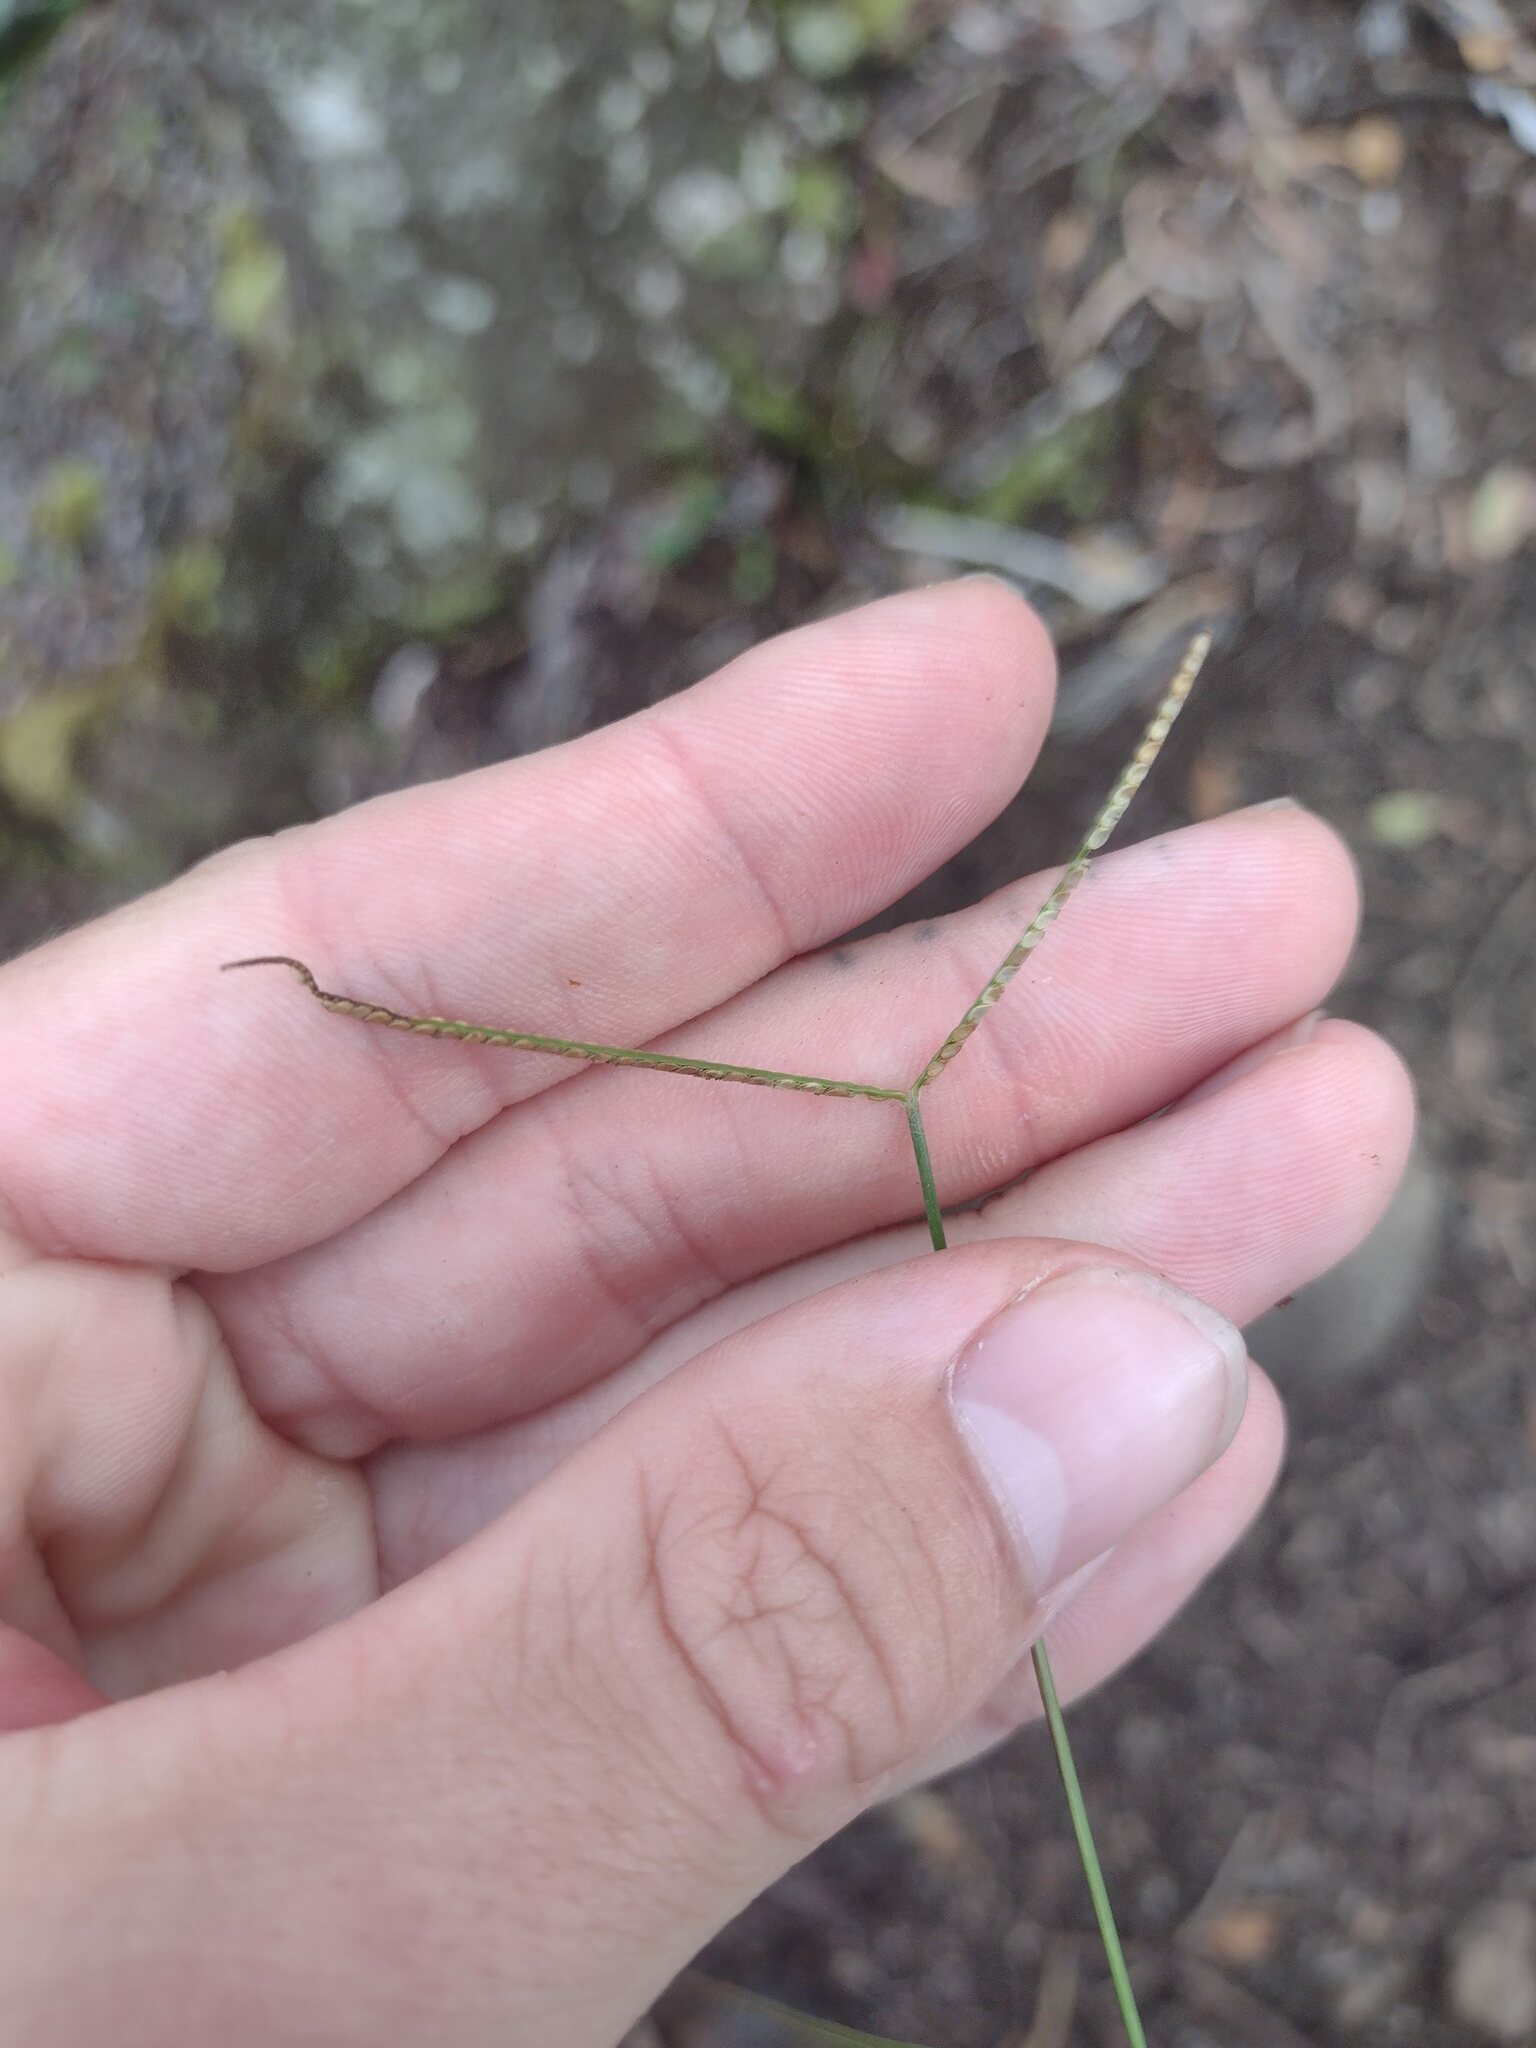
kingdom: Plantae
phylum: Tracheophyta
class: Liliopsida
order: Poales
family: Poaceae
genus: Paspalum
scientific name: Paspalum conjugatum
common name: Hilograss
